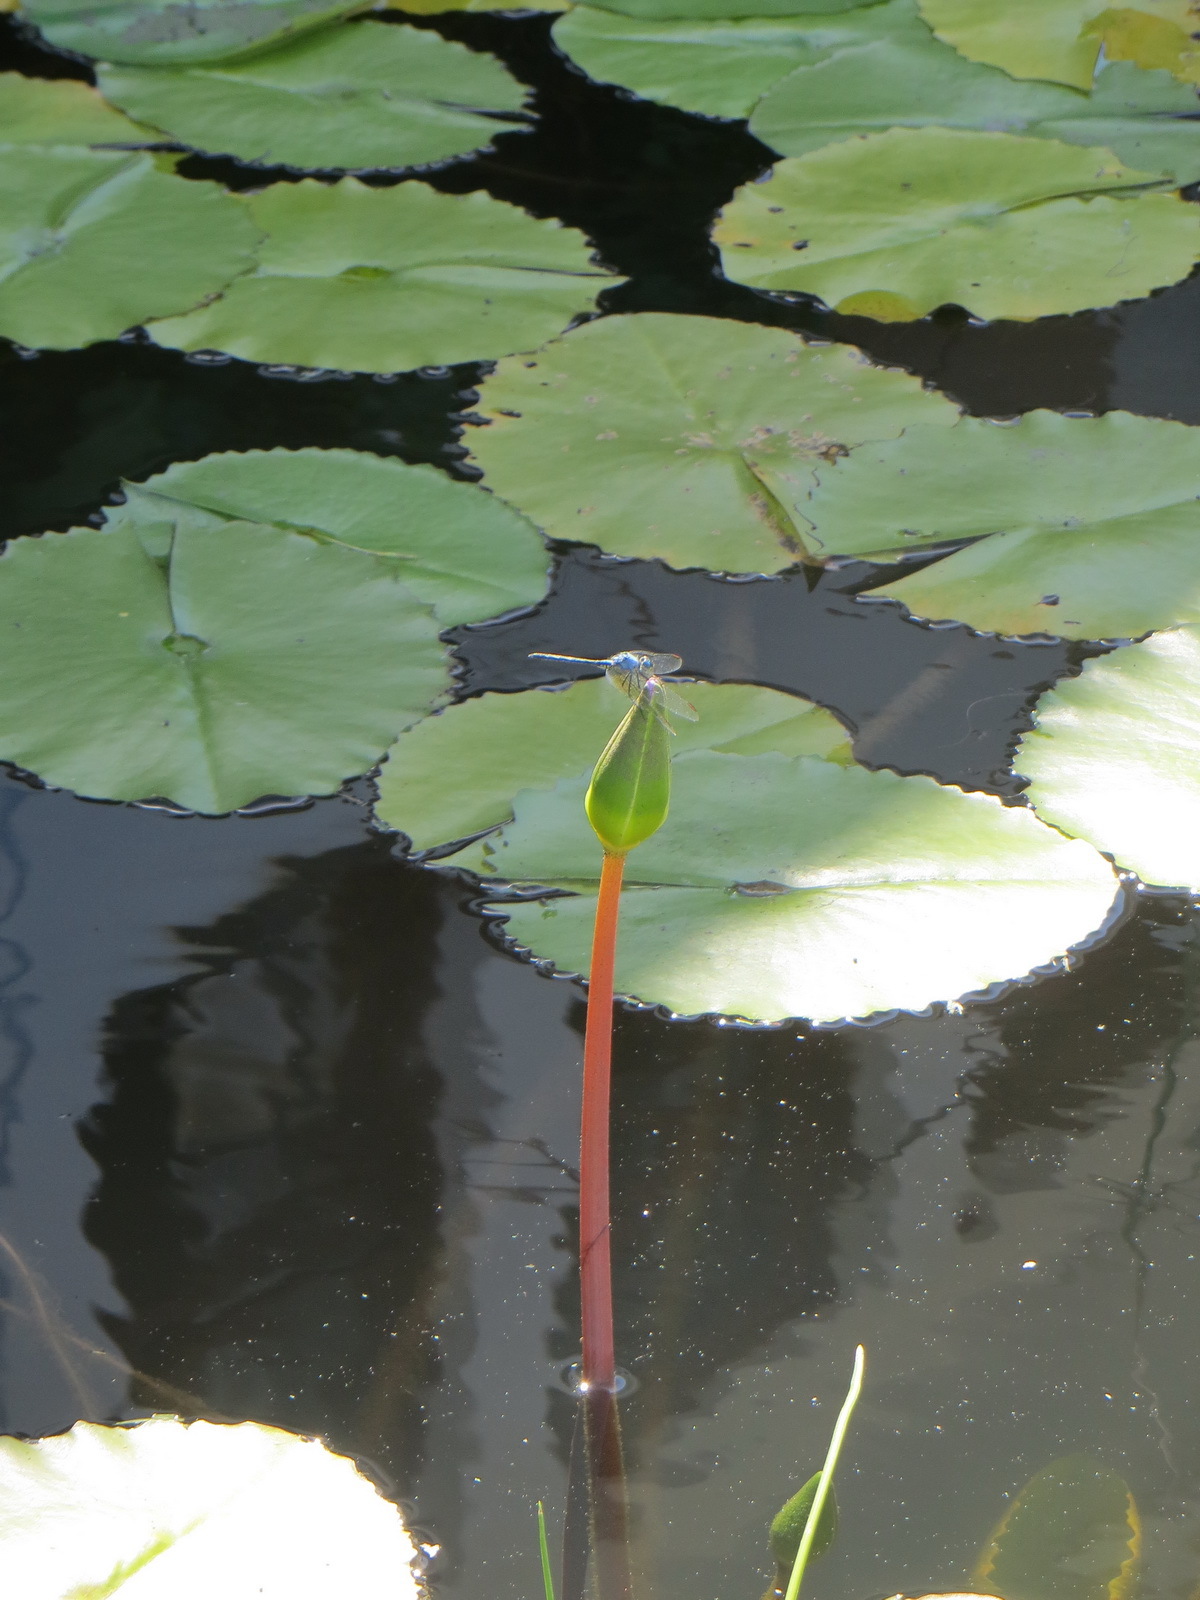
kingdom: Plantae
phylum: Tracheophyta
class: Magnoliopsida
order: Nymphaeales
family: Nymphaeaceae
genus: Nymphaea
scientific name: Nymphaea nouchali
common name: Blue lotus
